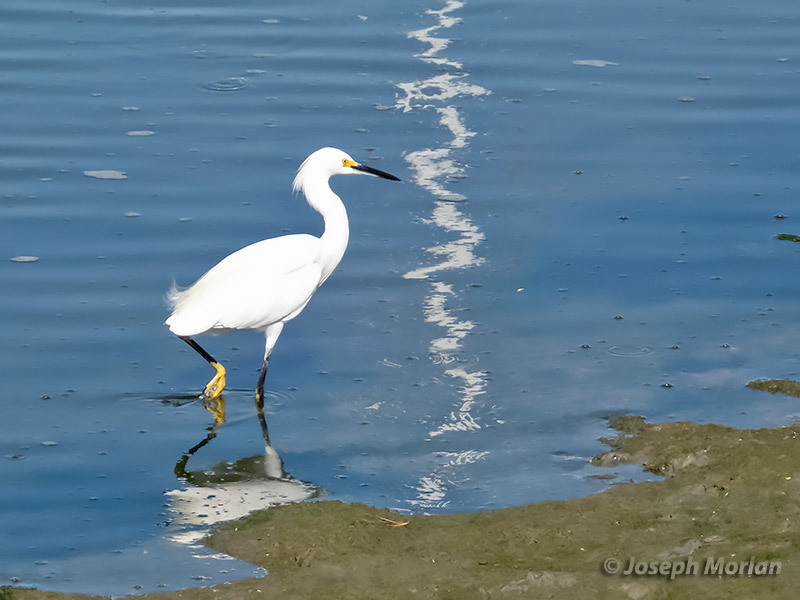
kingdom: Animalia
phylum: Chordata
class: Aves
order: Pelecaniformes
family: Ardeidae
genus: Egretta
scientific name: Egretta thula
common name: Snowy egret
